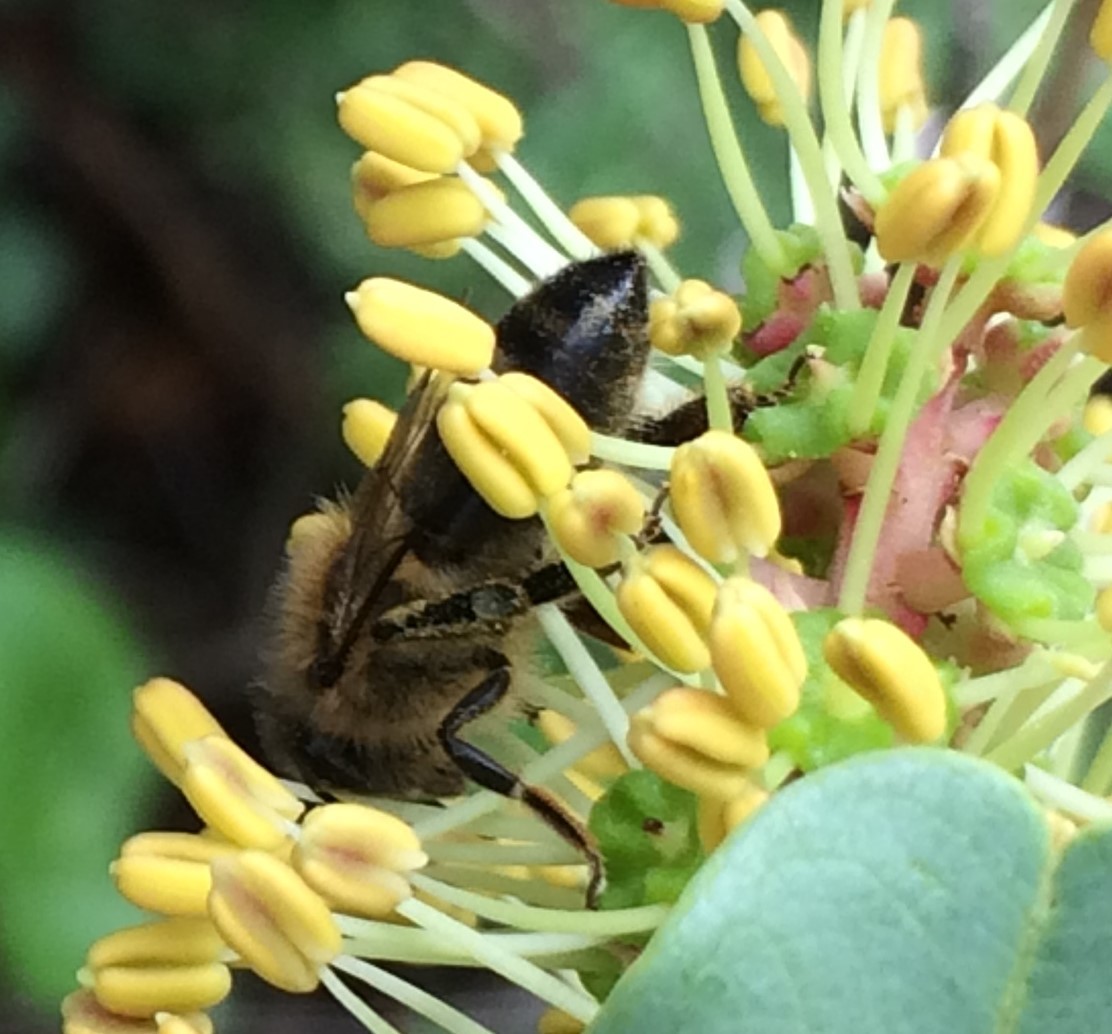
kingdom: Animalia
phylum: Arthropoda
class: Insecta
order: Hymenoptera
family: Apidae
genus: Apis
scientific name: Apis mellifera
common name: Honey bee
